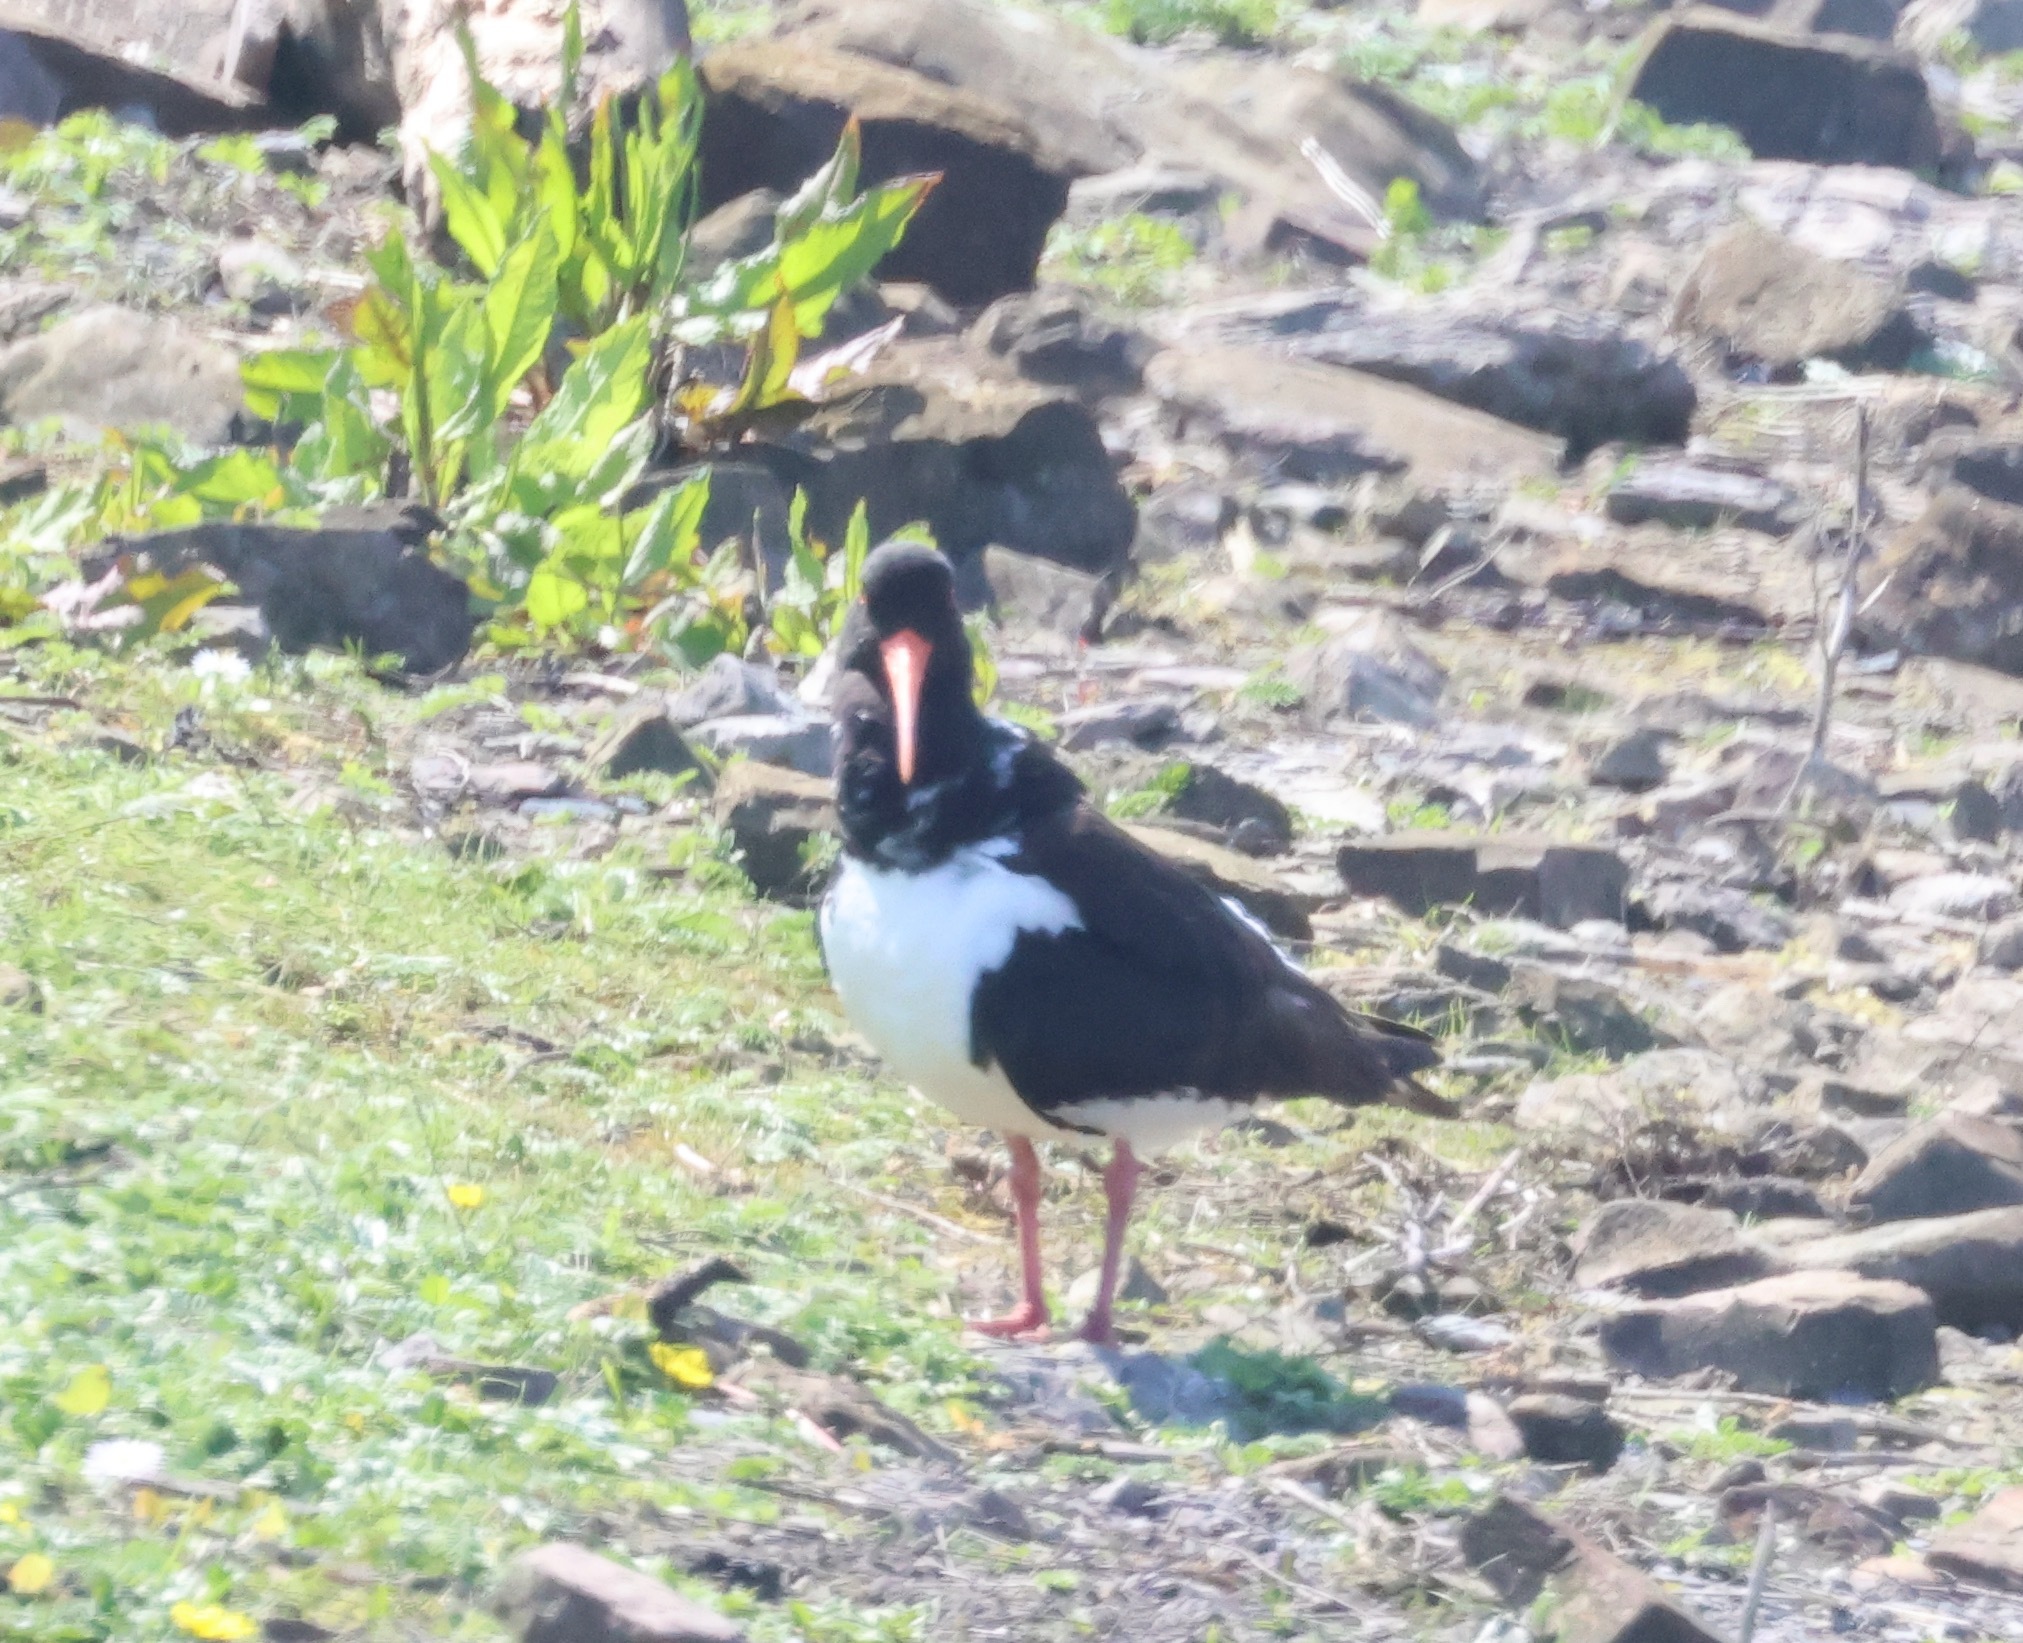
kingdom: Animalia
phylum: Chordata
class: Aves
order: Charadriiformes
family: Haematopodidae
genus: Haematopus
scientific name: Haematopus ostralegus
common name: Eurasian oystercatcher
